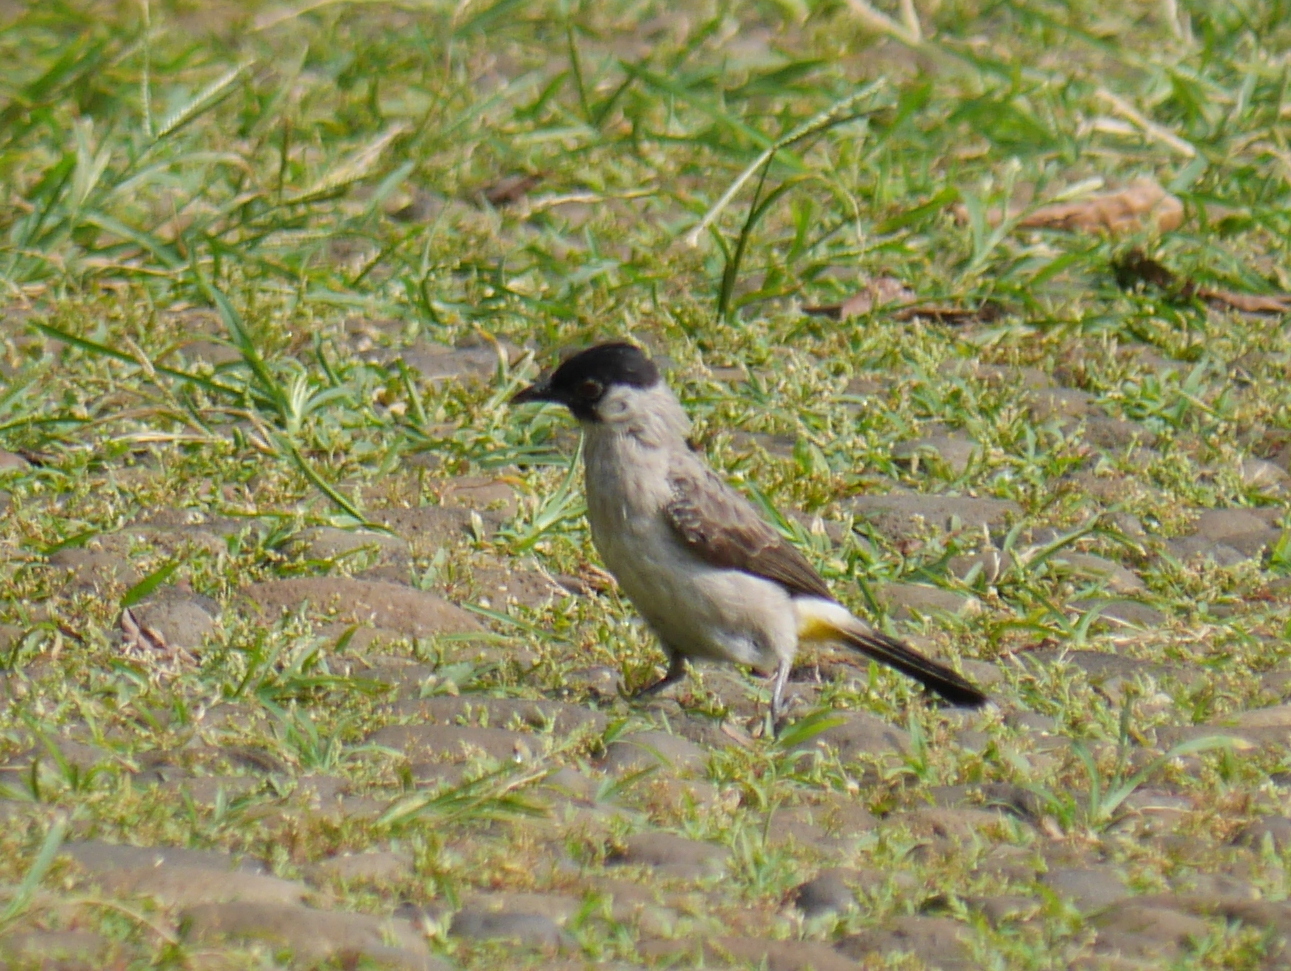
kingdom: Animalia
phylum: Chordata
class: Aves
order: Passeriformes
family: Pycnonotidae
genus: Pycnonotus
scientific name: Pycnonotus aurigaster
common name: Sooty-headed bulbul
